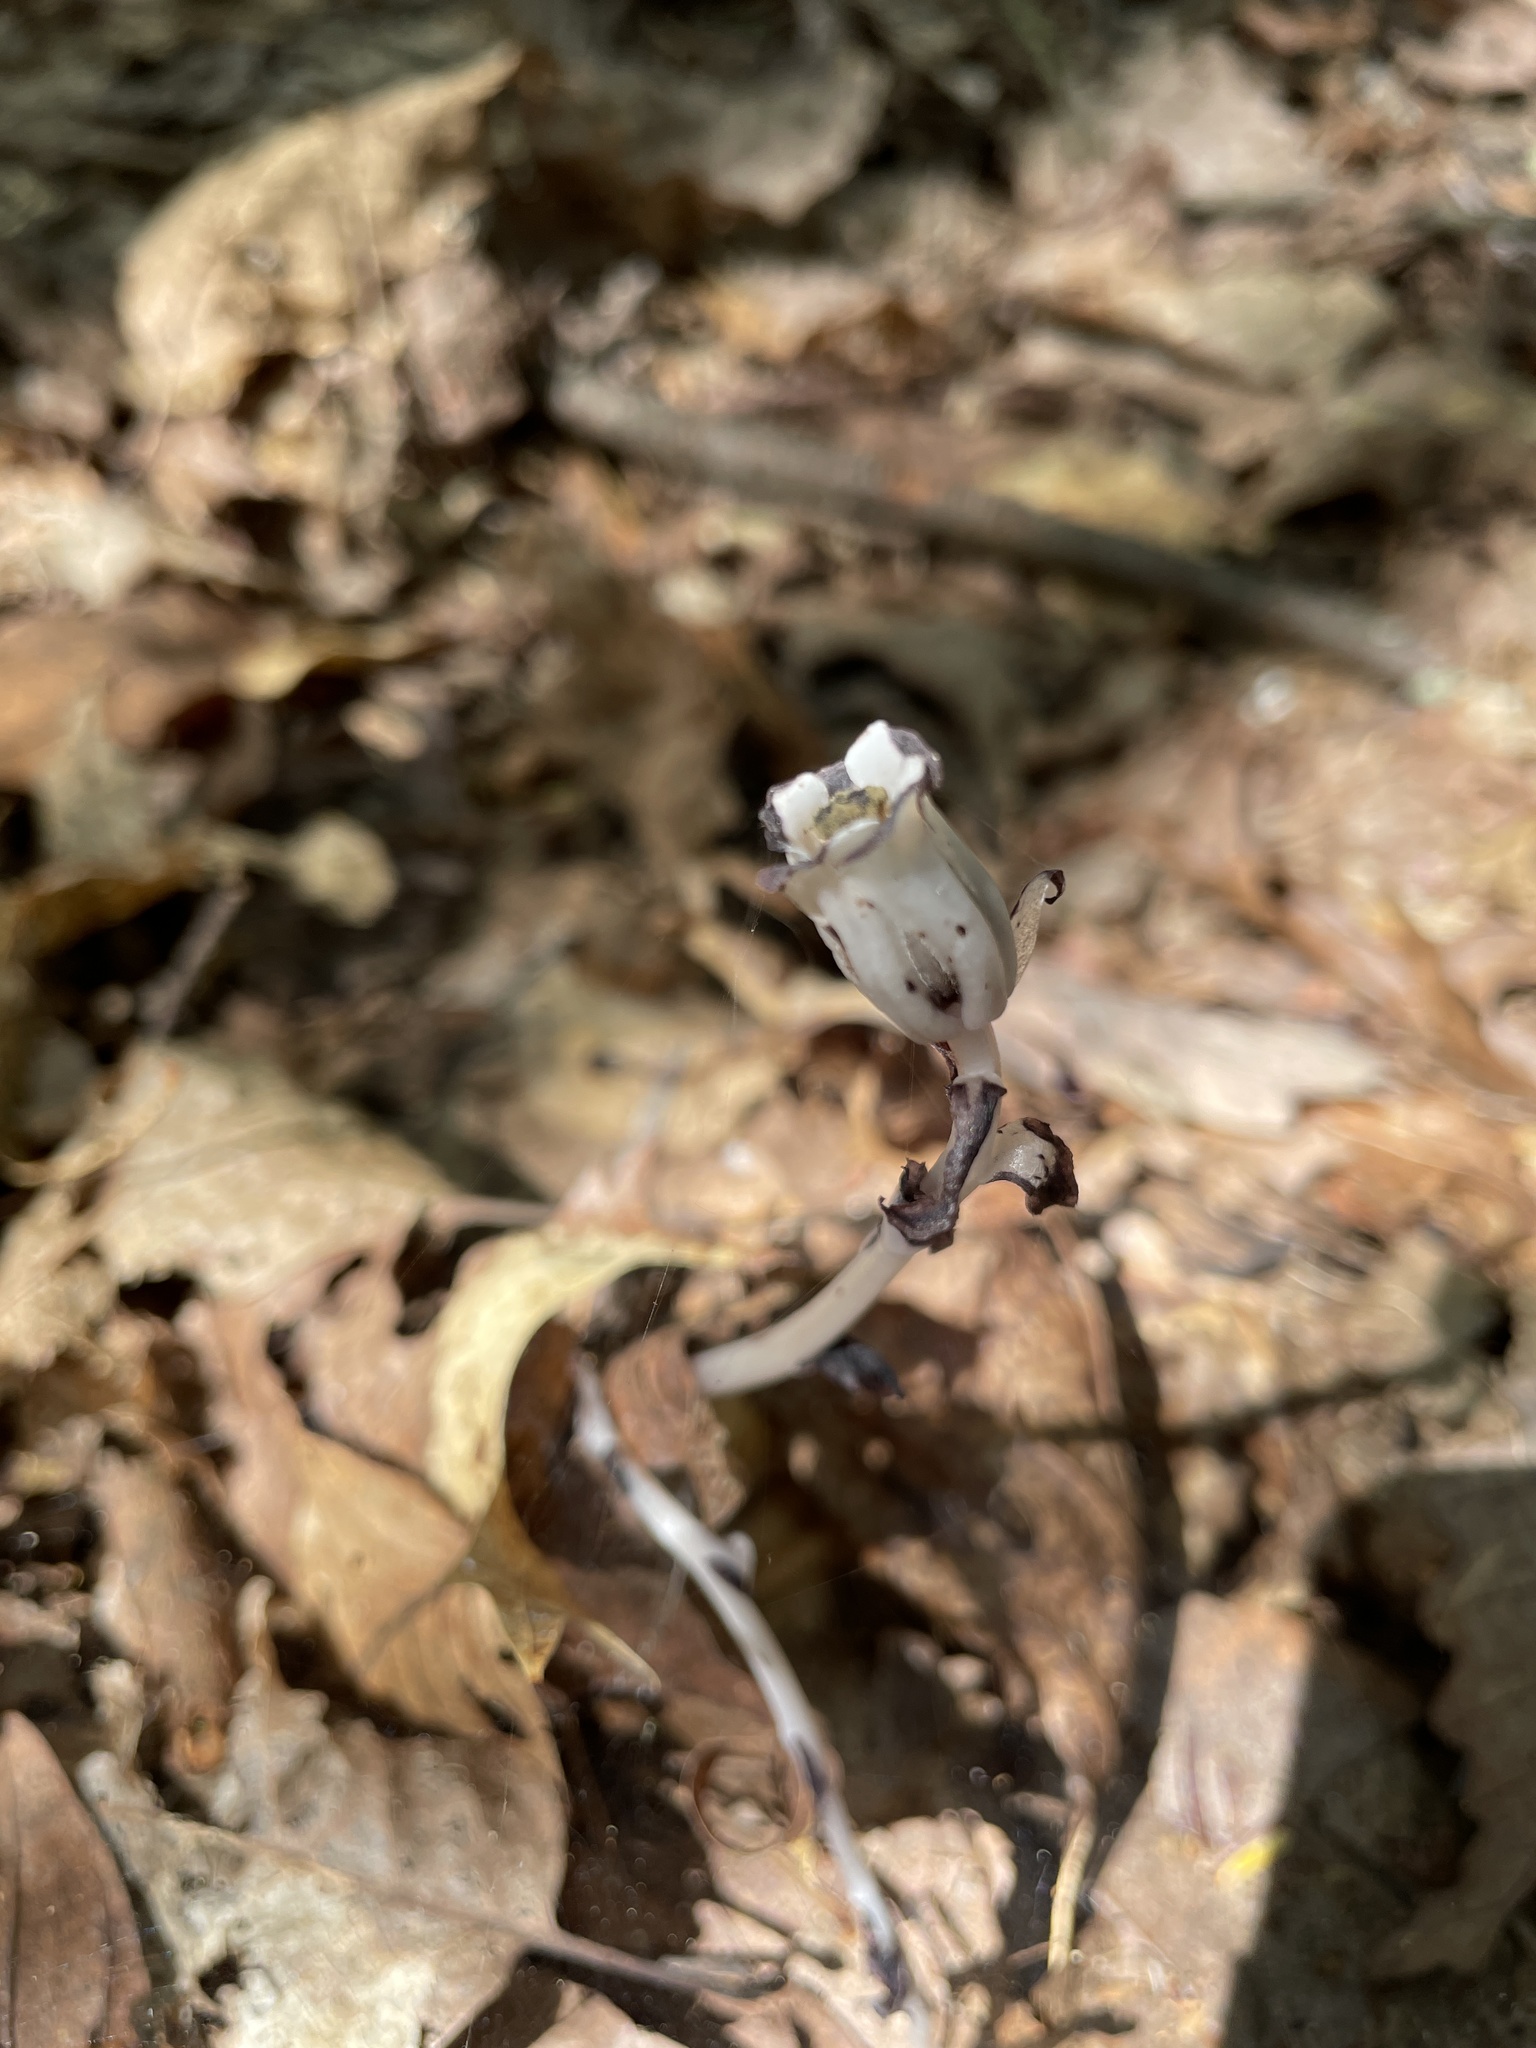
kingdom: Plantae
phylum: Tracheophyta
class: Magnoliopsida
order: Ericales
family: Ericaceae
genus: Monotropa
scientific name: Monotropa uniflora
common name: Convulsion root
